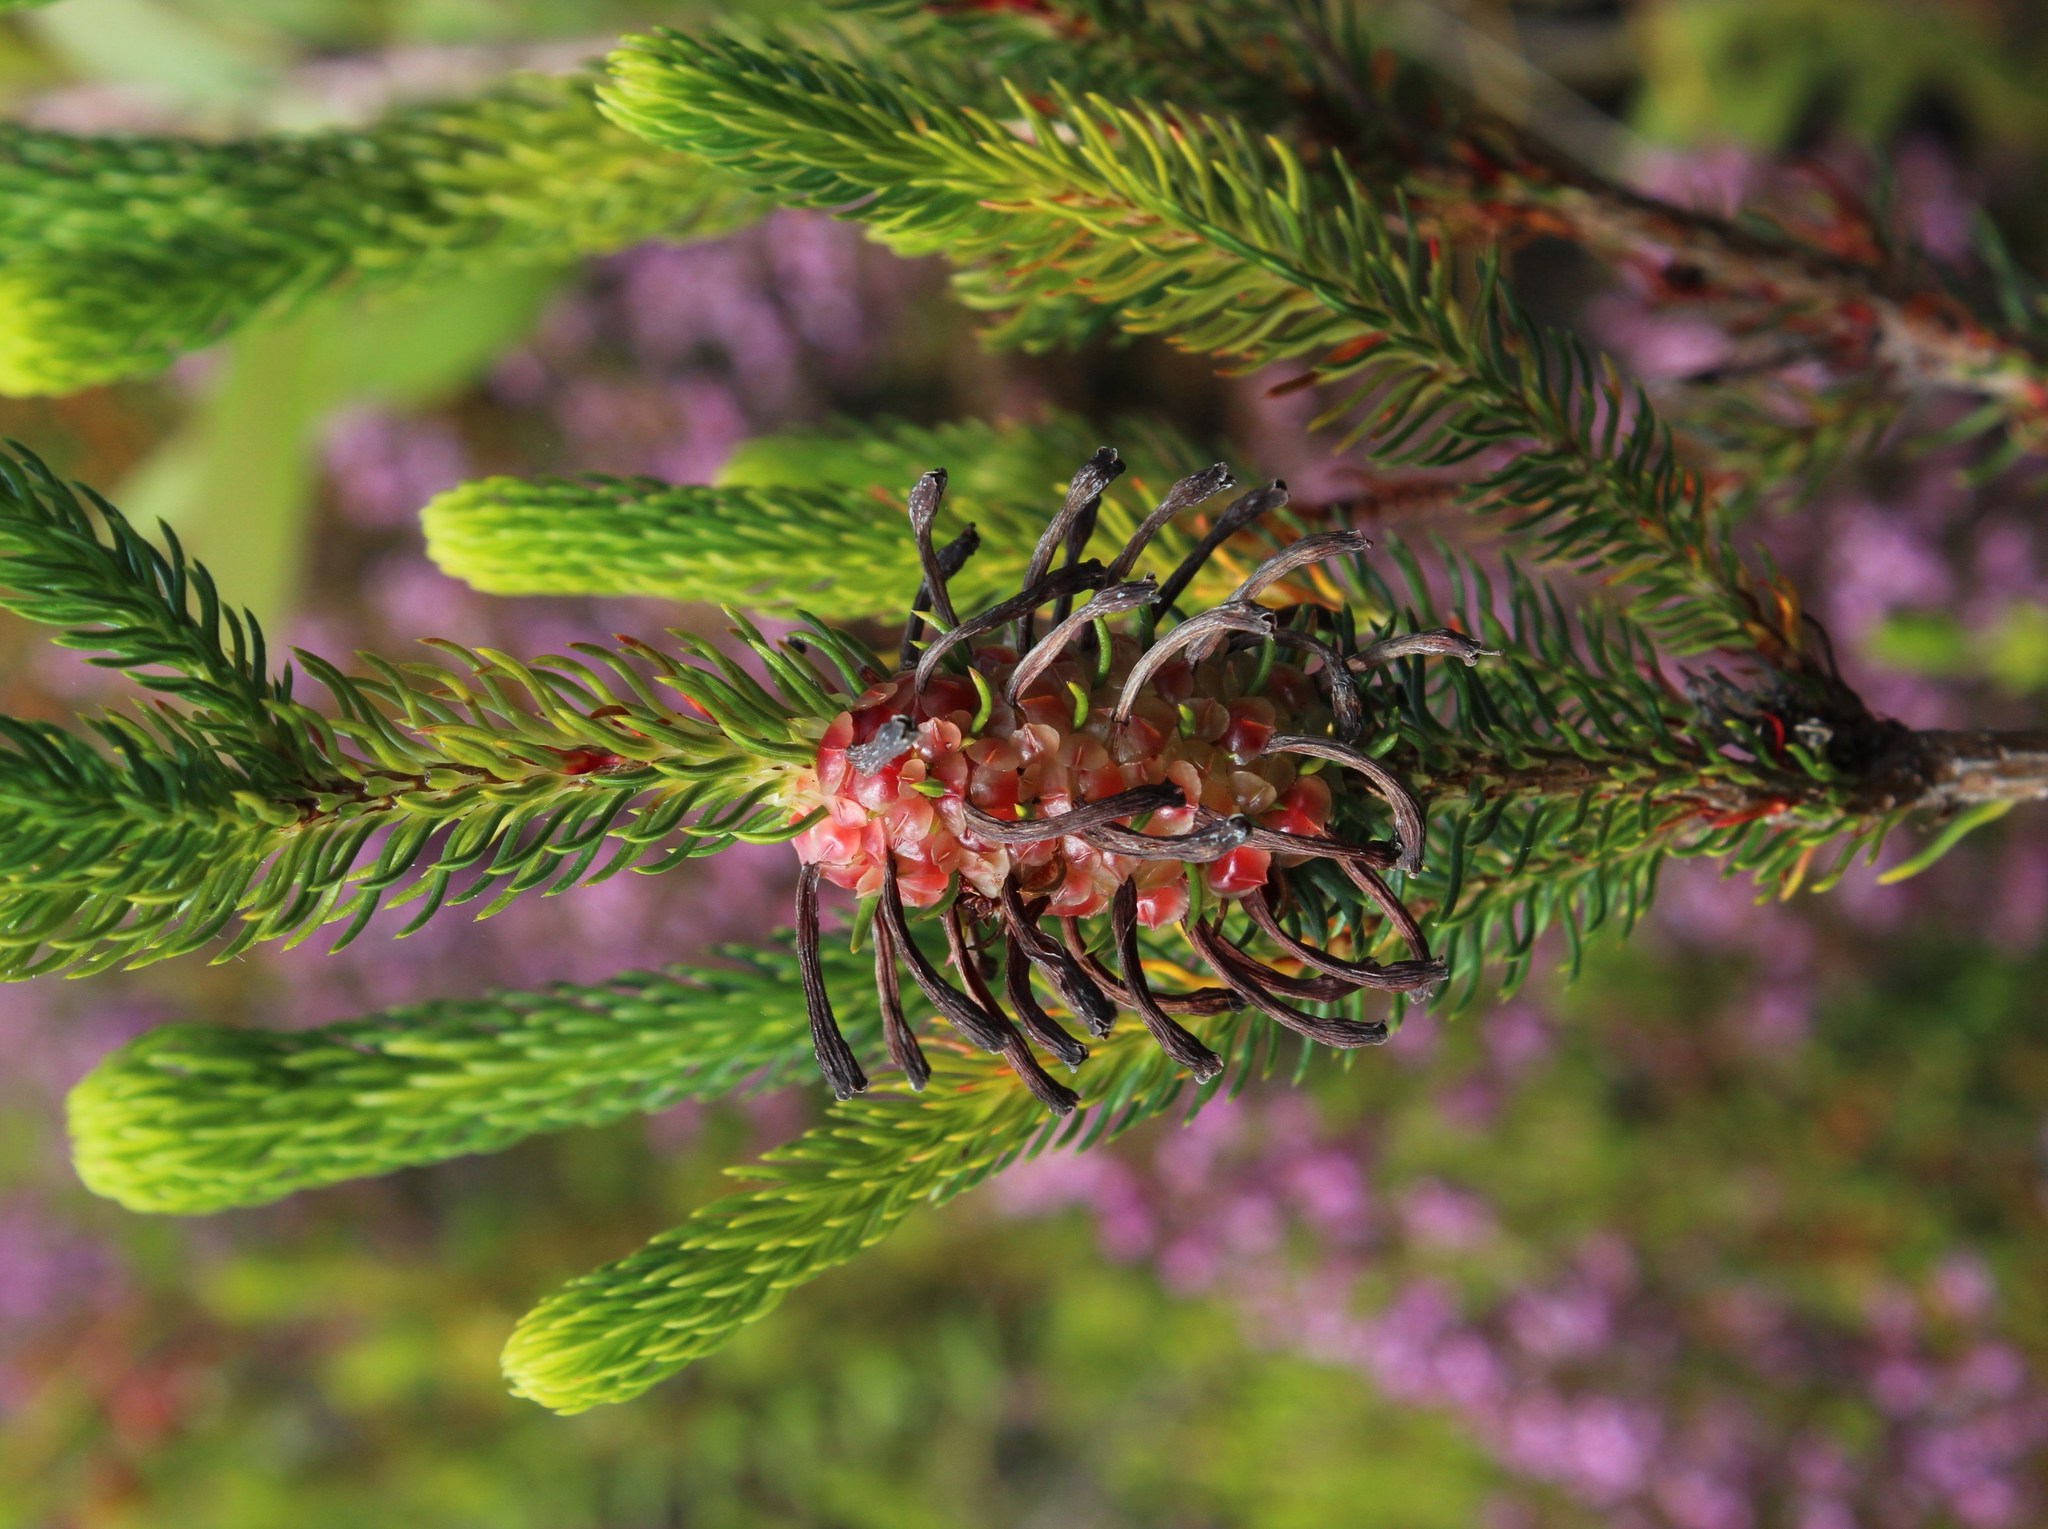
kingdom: Plantae
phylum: Tracheophyta
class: Magnoliopsida
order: Ericales
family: Ericaceae
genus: Erica
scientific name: Erica sessiliflora
